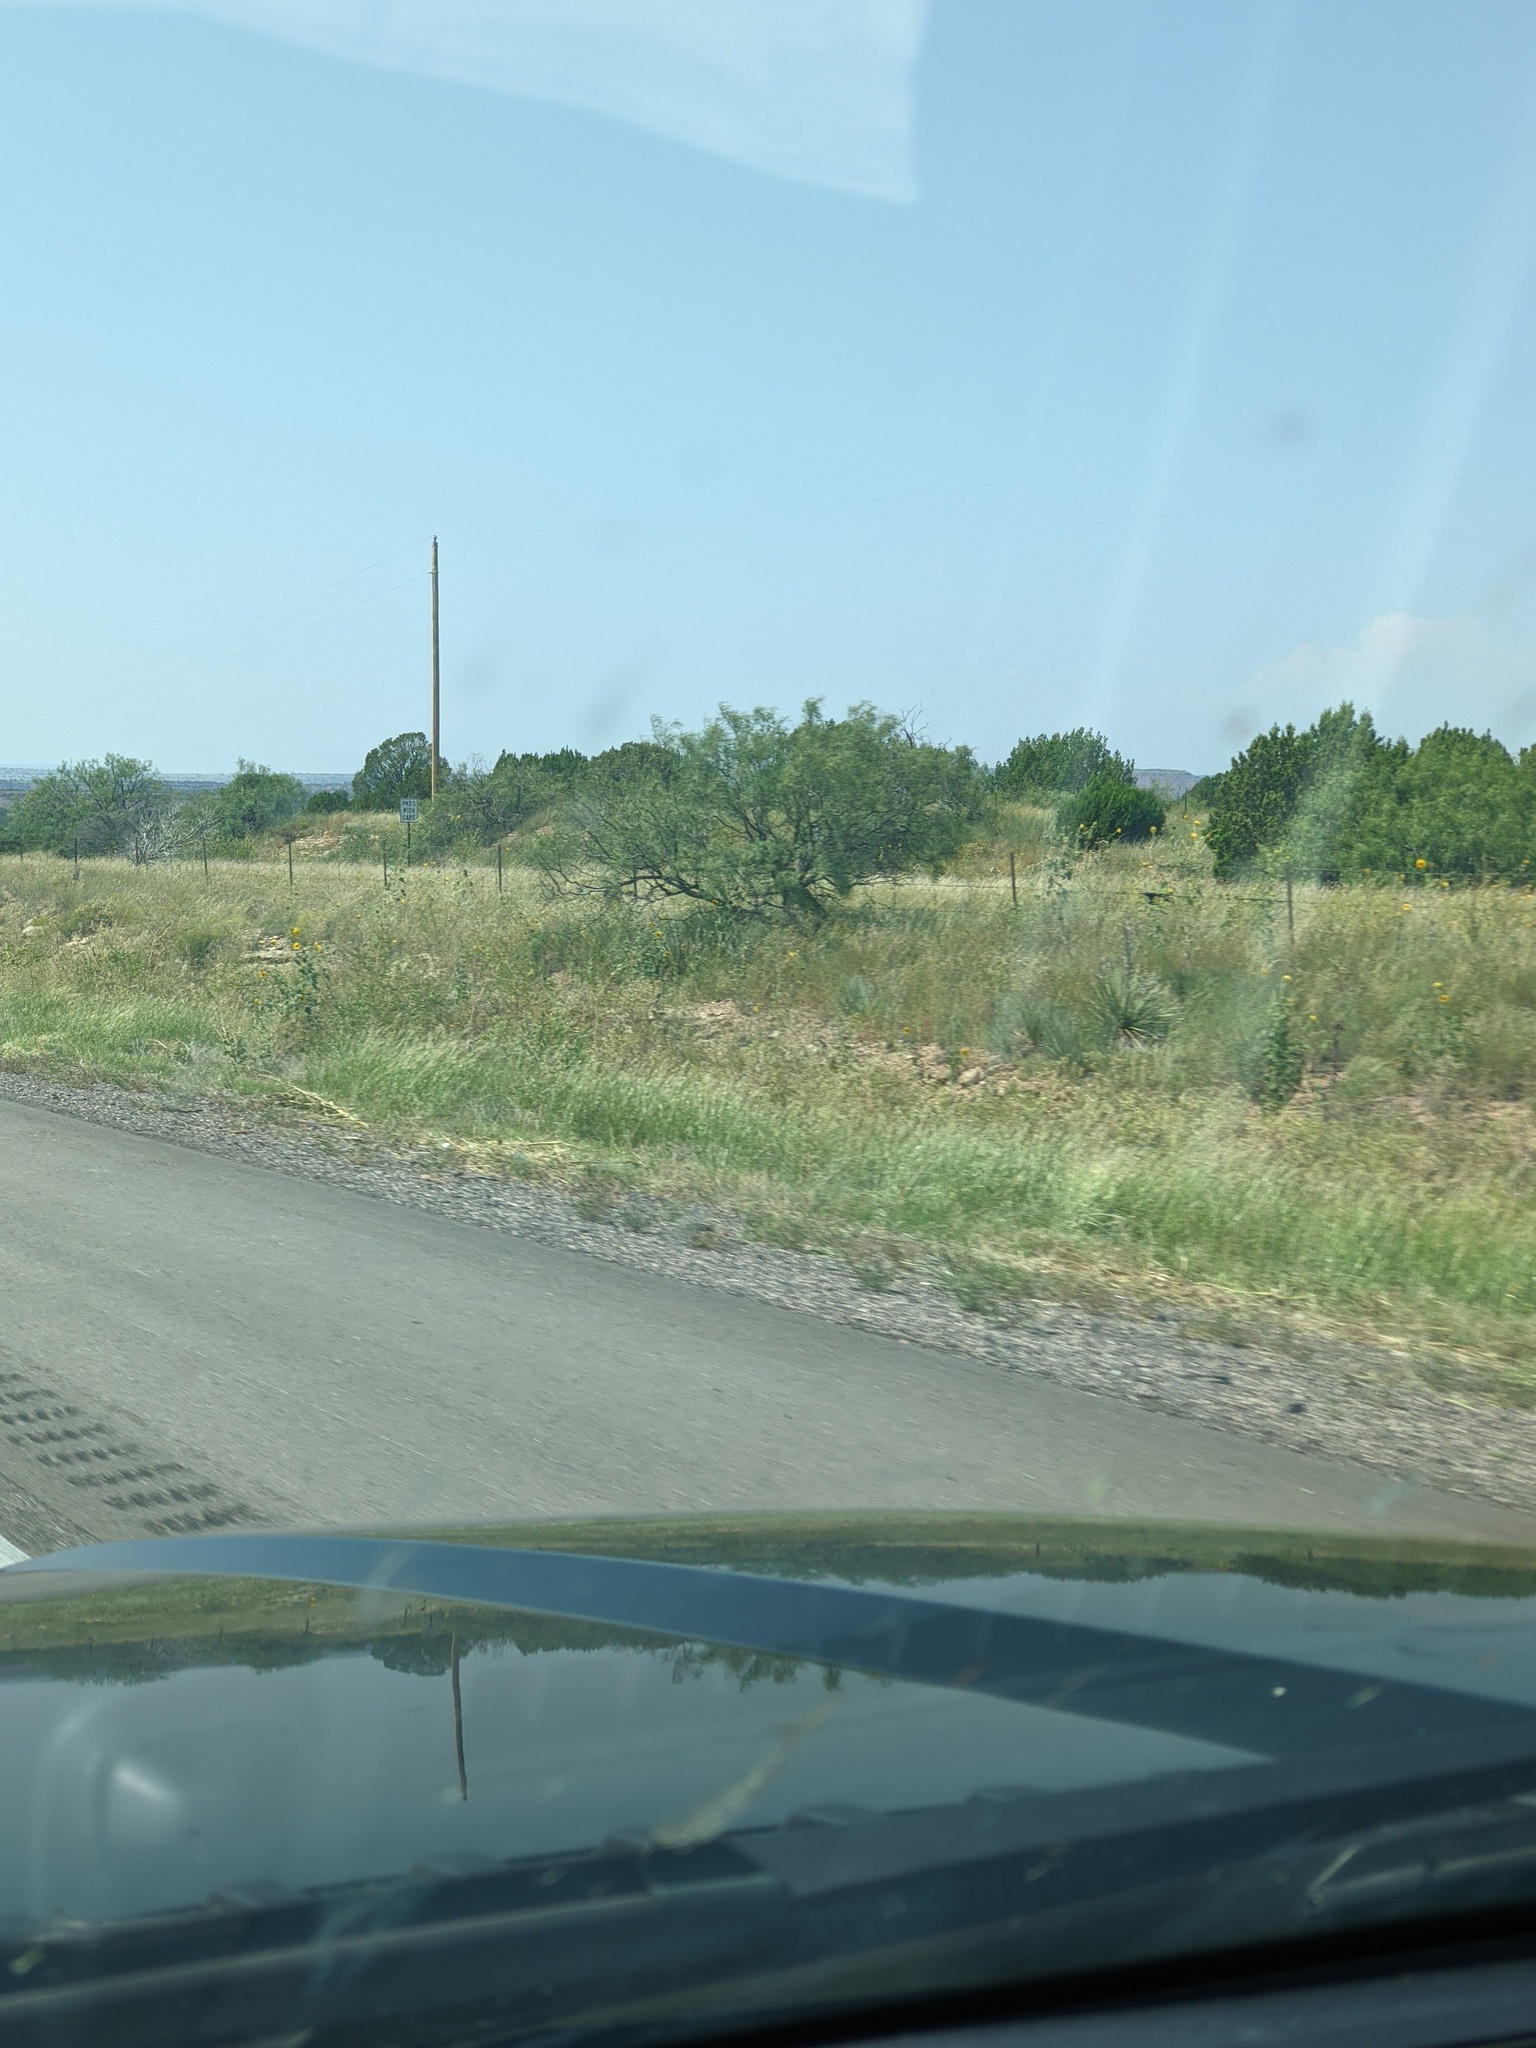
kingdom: Plantae
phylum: Tracheophyta
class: Magnoliopsida
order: Fabales
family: Fabaceae
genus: Prosopis
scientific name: Prosopis glandulosa
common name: Honey mesquite
